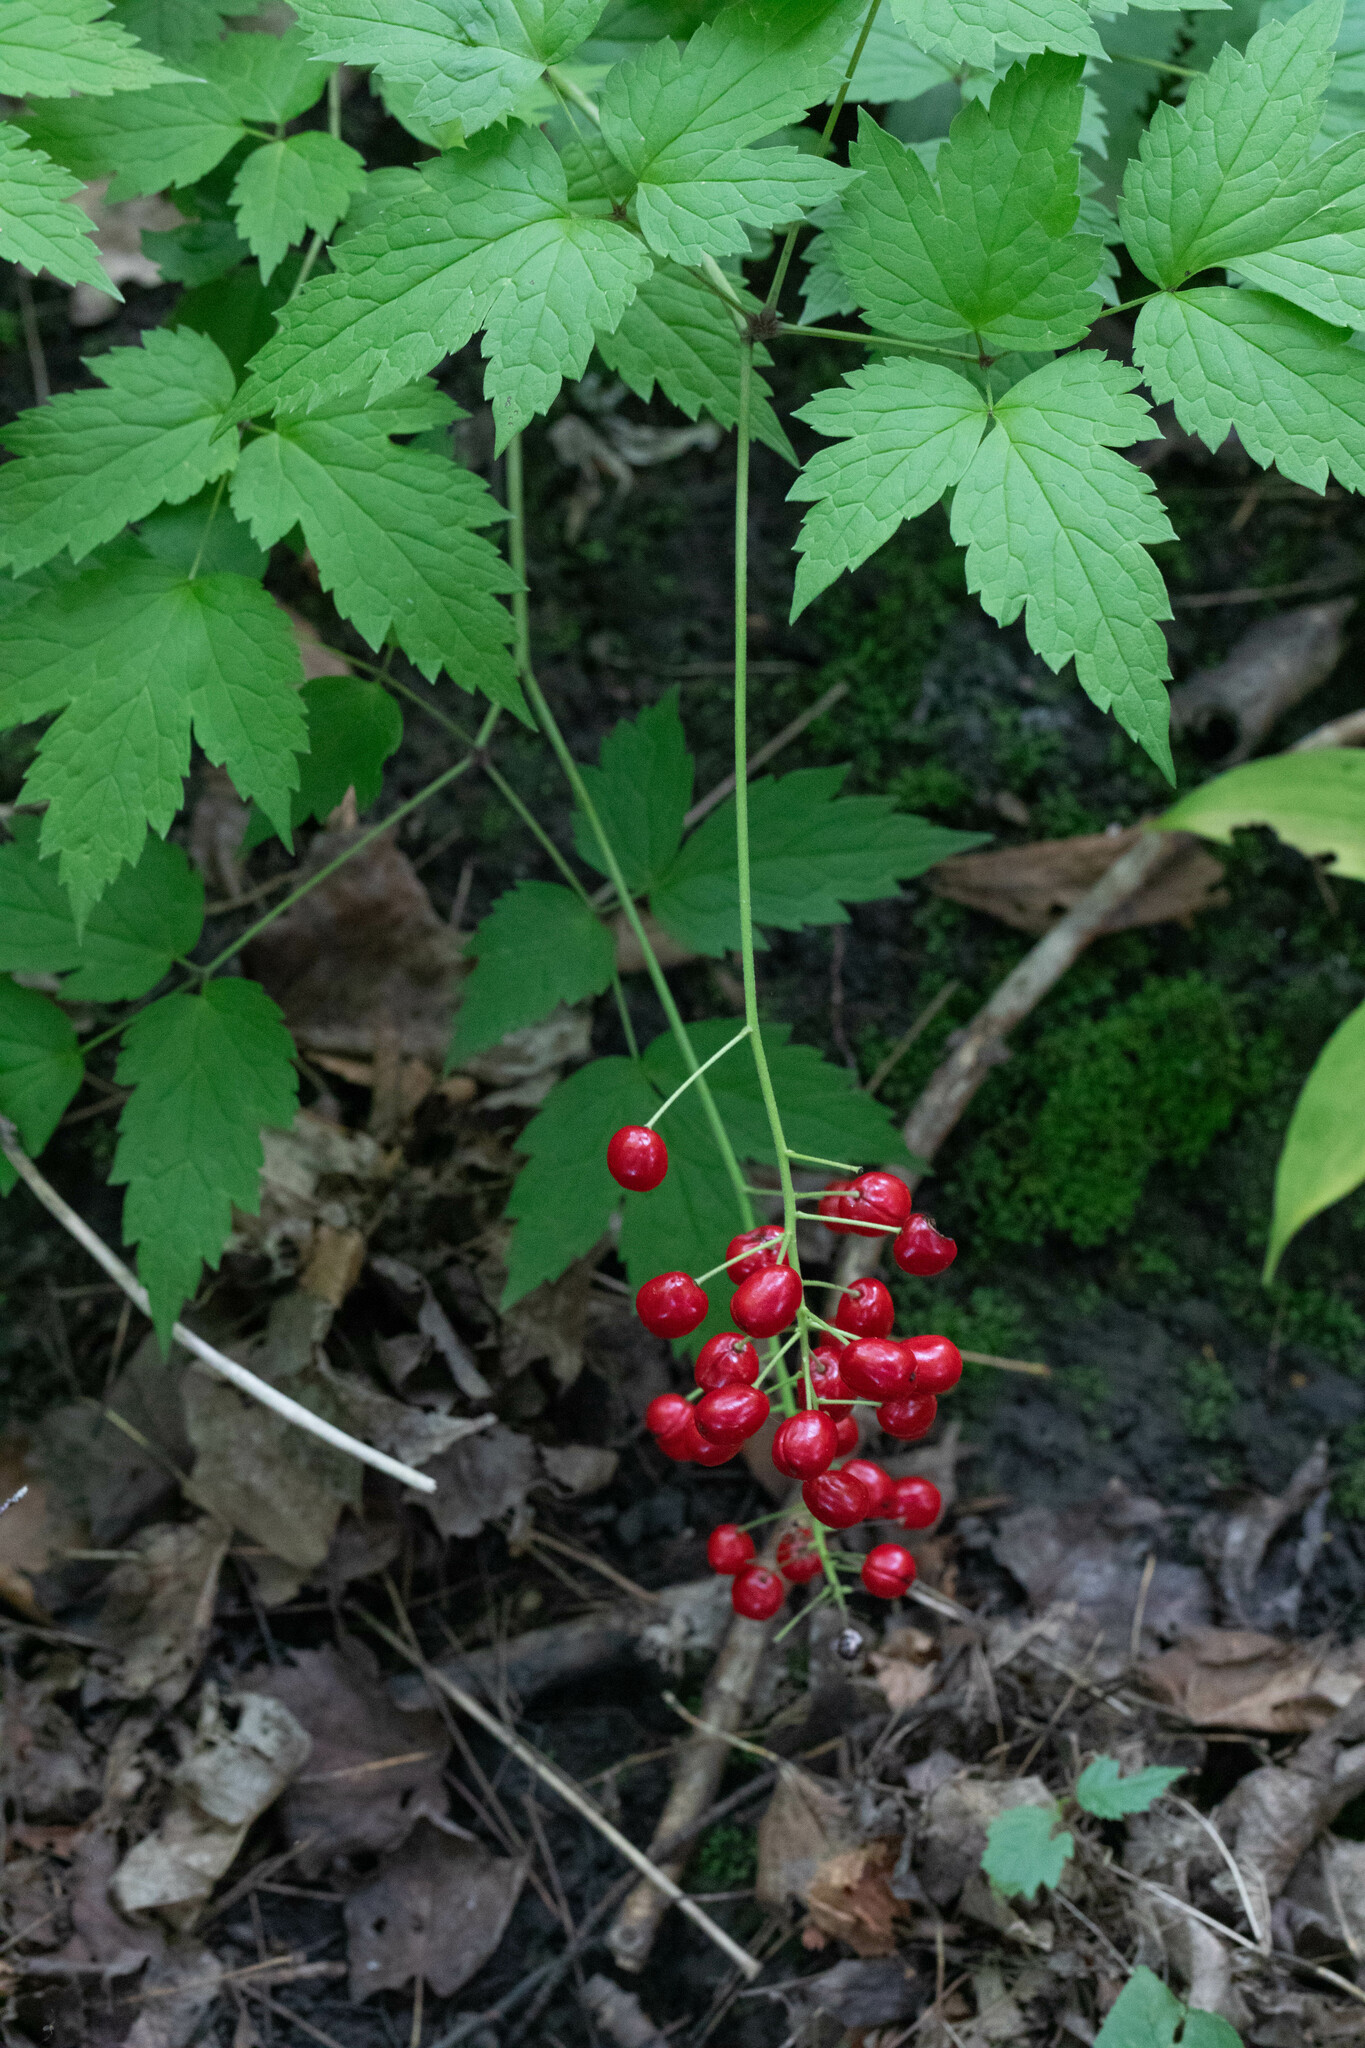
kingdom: Plantae
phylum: Tracheophyta
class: Magnoliopsida
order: Ranunculales
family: Ranunculaceae
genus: Actaea
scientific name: Actaea rubra
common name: Red baneberry
